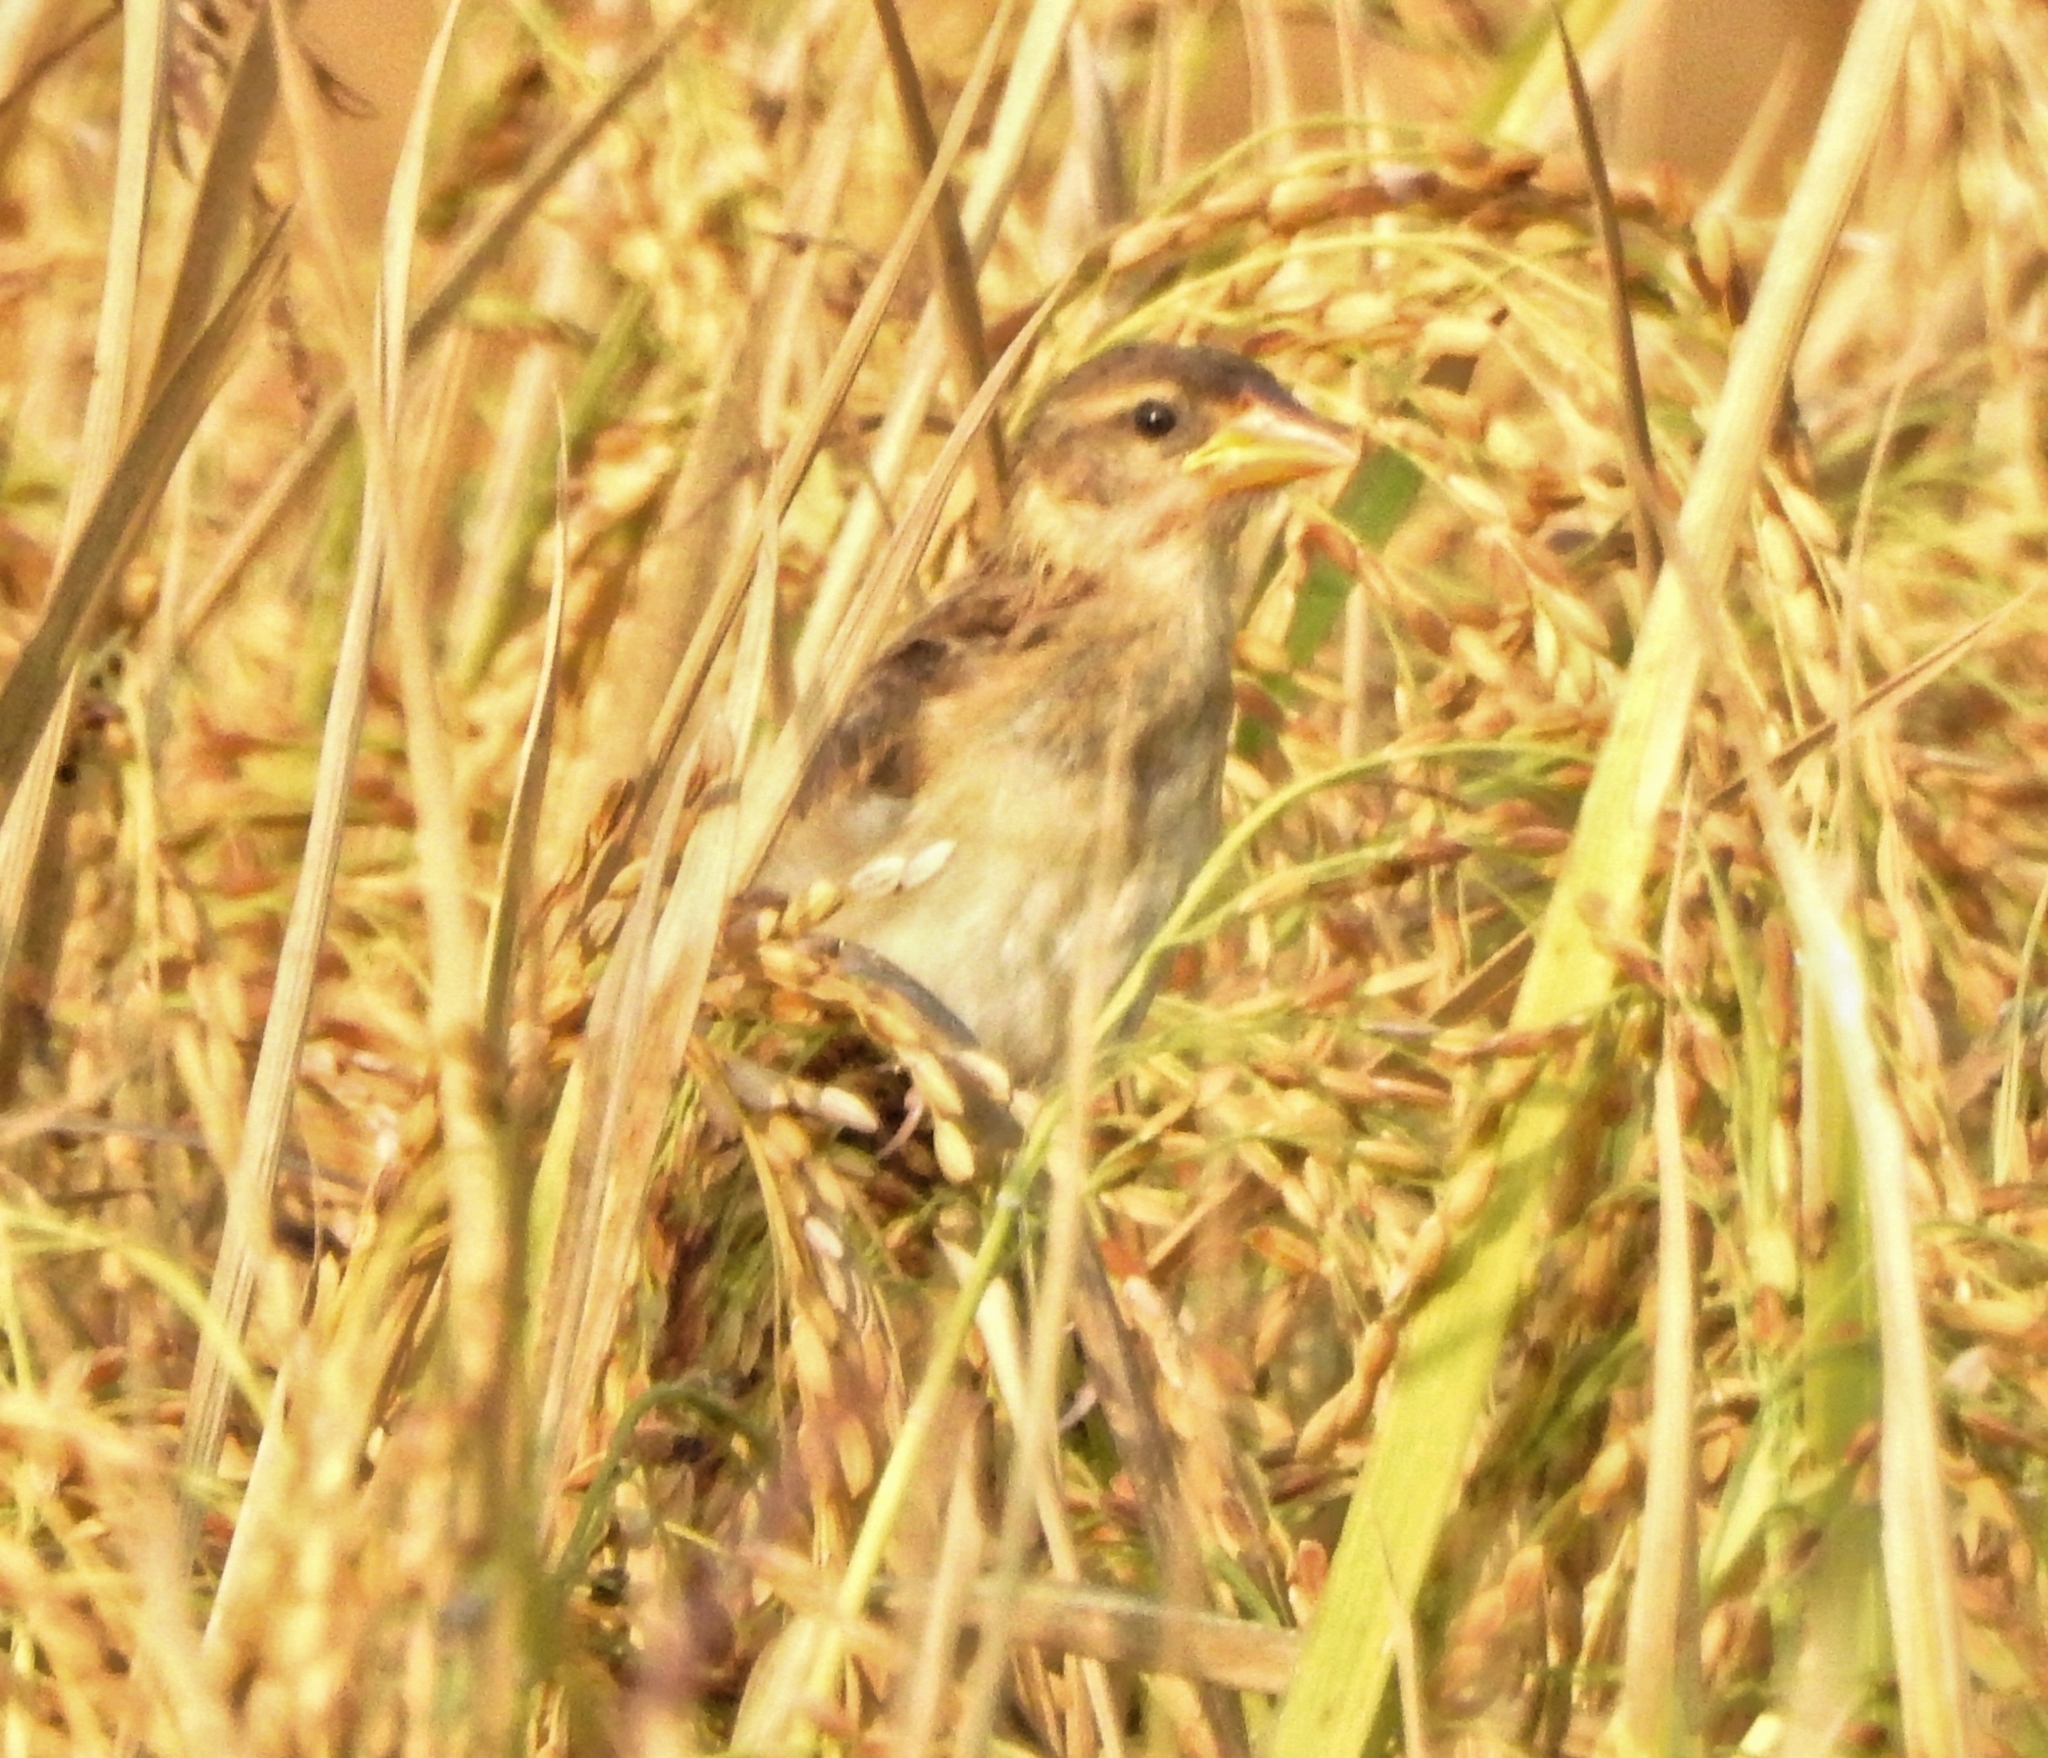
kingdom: Animalia
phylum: Chordata
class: Aves
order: Passeriformes
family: Ploceidae
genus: Ploceus
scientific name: Ploceus philippinus
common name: Baya weaver
